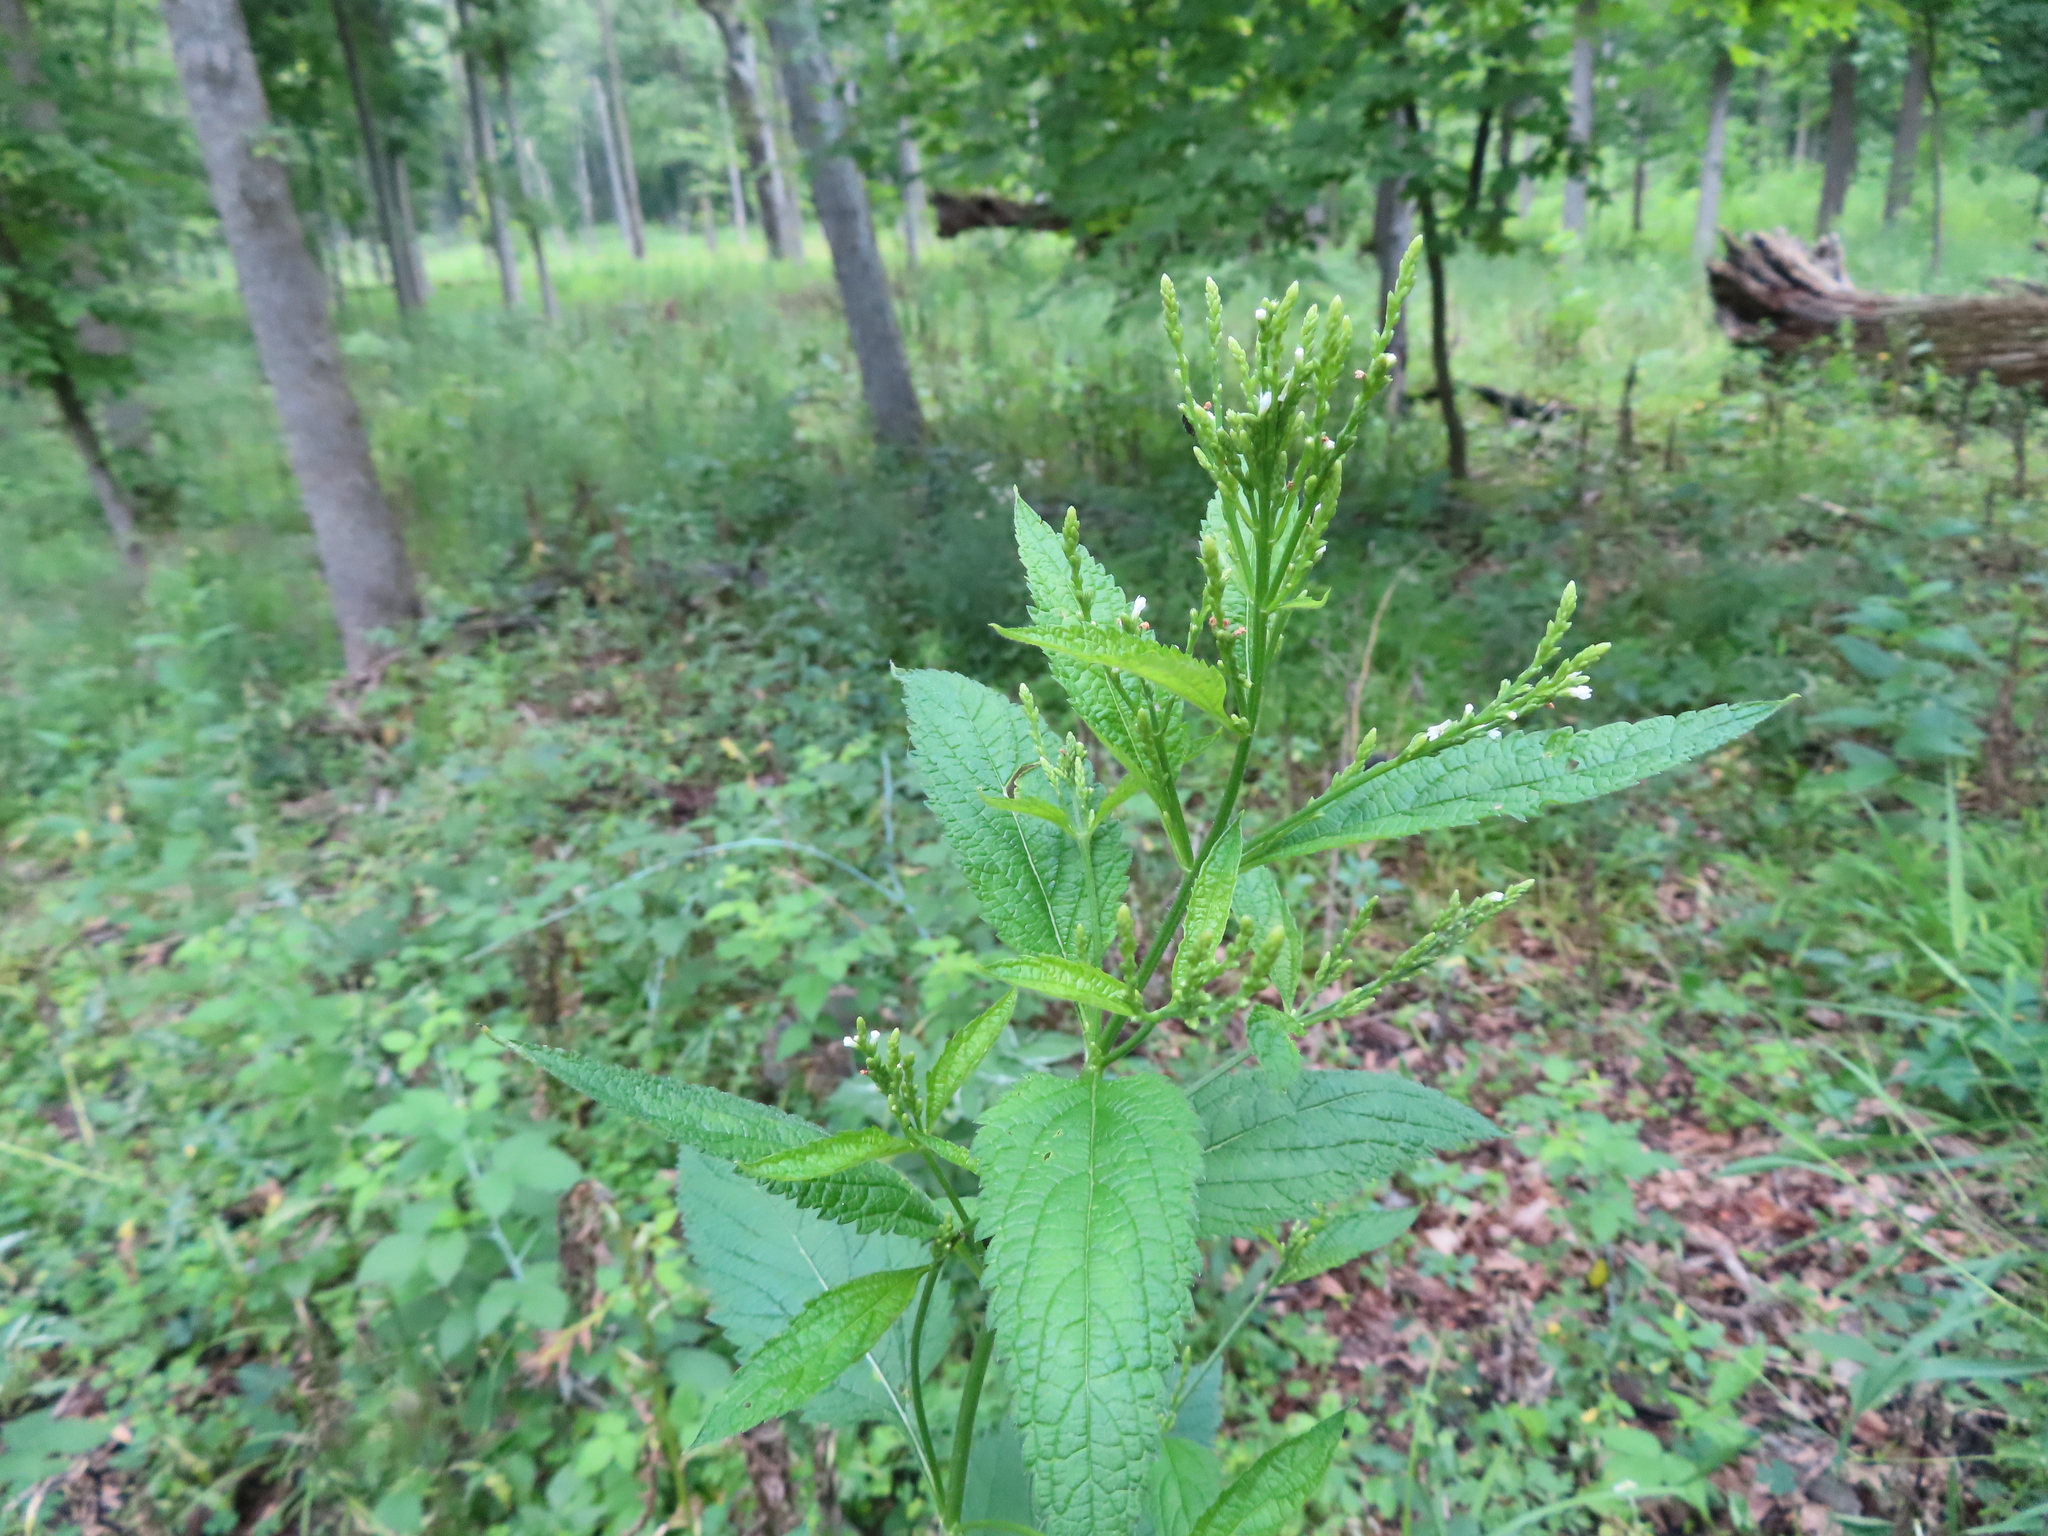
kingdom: Plantae
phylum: Tracheophyta
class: Magnoliopsida
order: Lamiales
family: Verbenaceae
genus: Verbena
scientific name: Verbena urticifolia
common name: Nettle-leaved vervain
